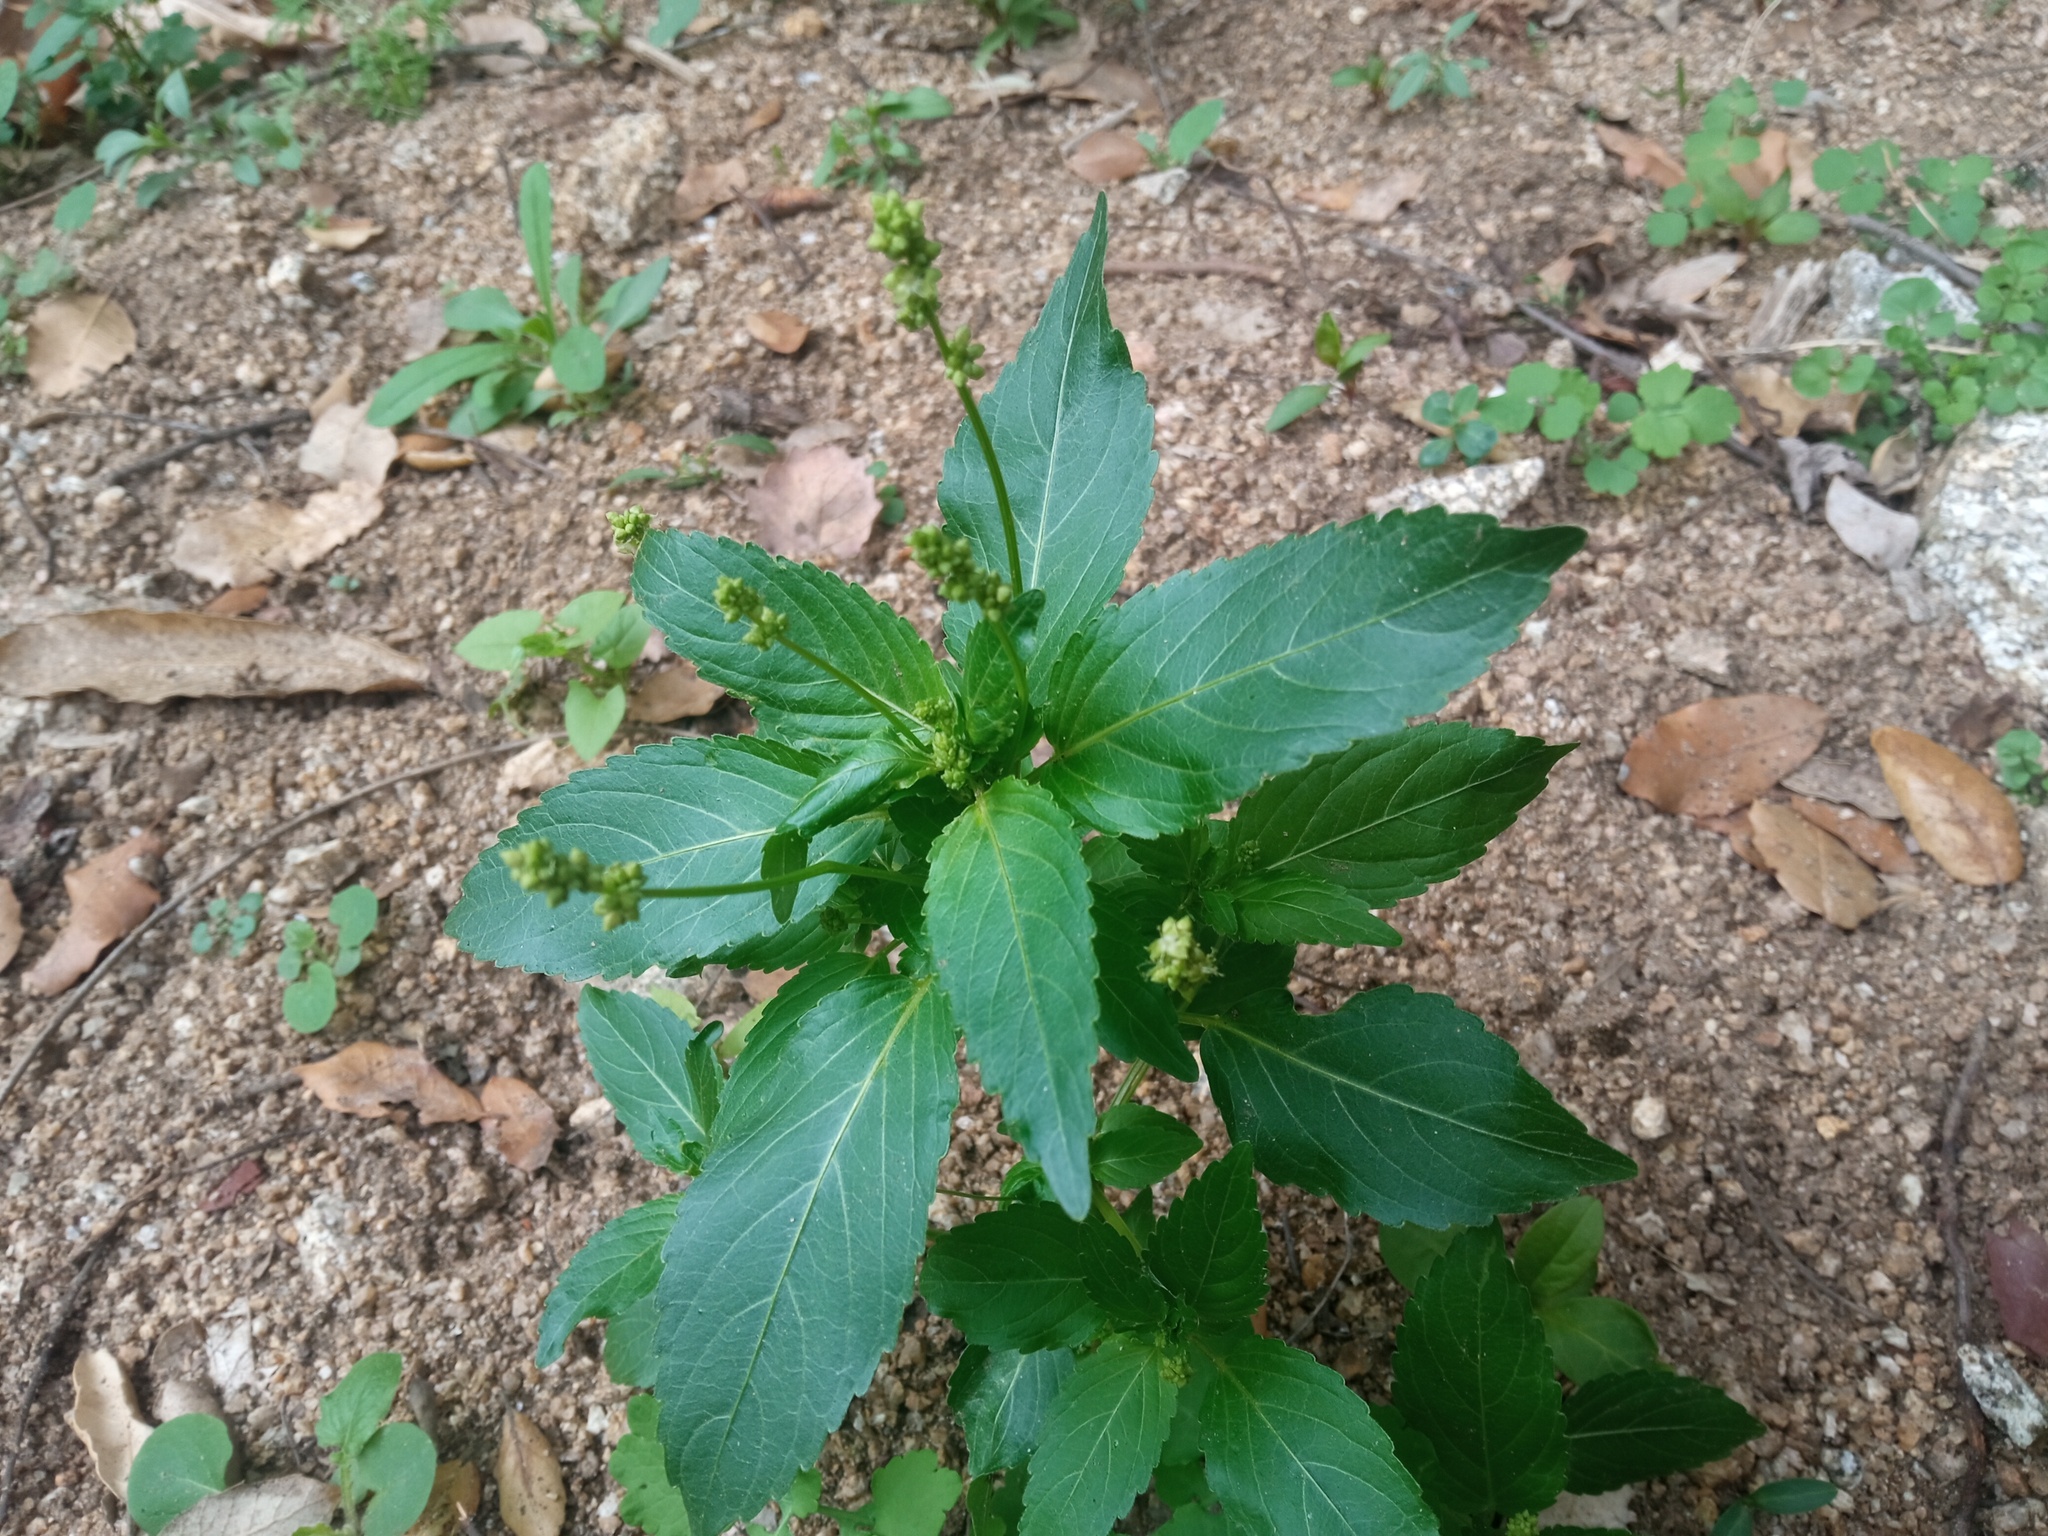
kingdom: Plantae
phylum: Tracheophyta
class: Magnoliopsida
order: Malpighiales
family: Euphorbiaceae
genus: Mercurialis
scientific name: Mercurialis annua
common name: Annual mercury
